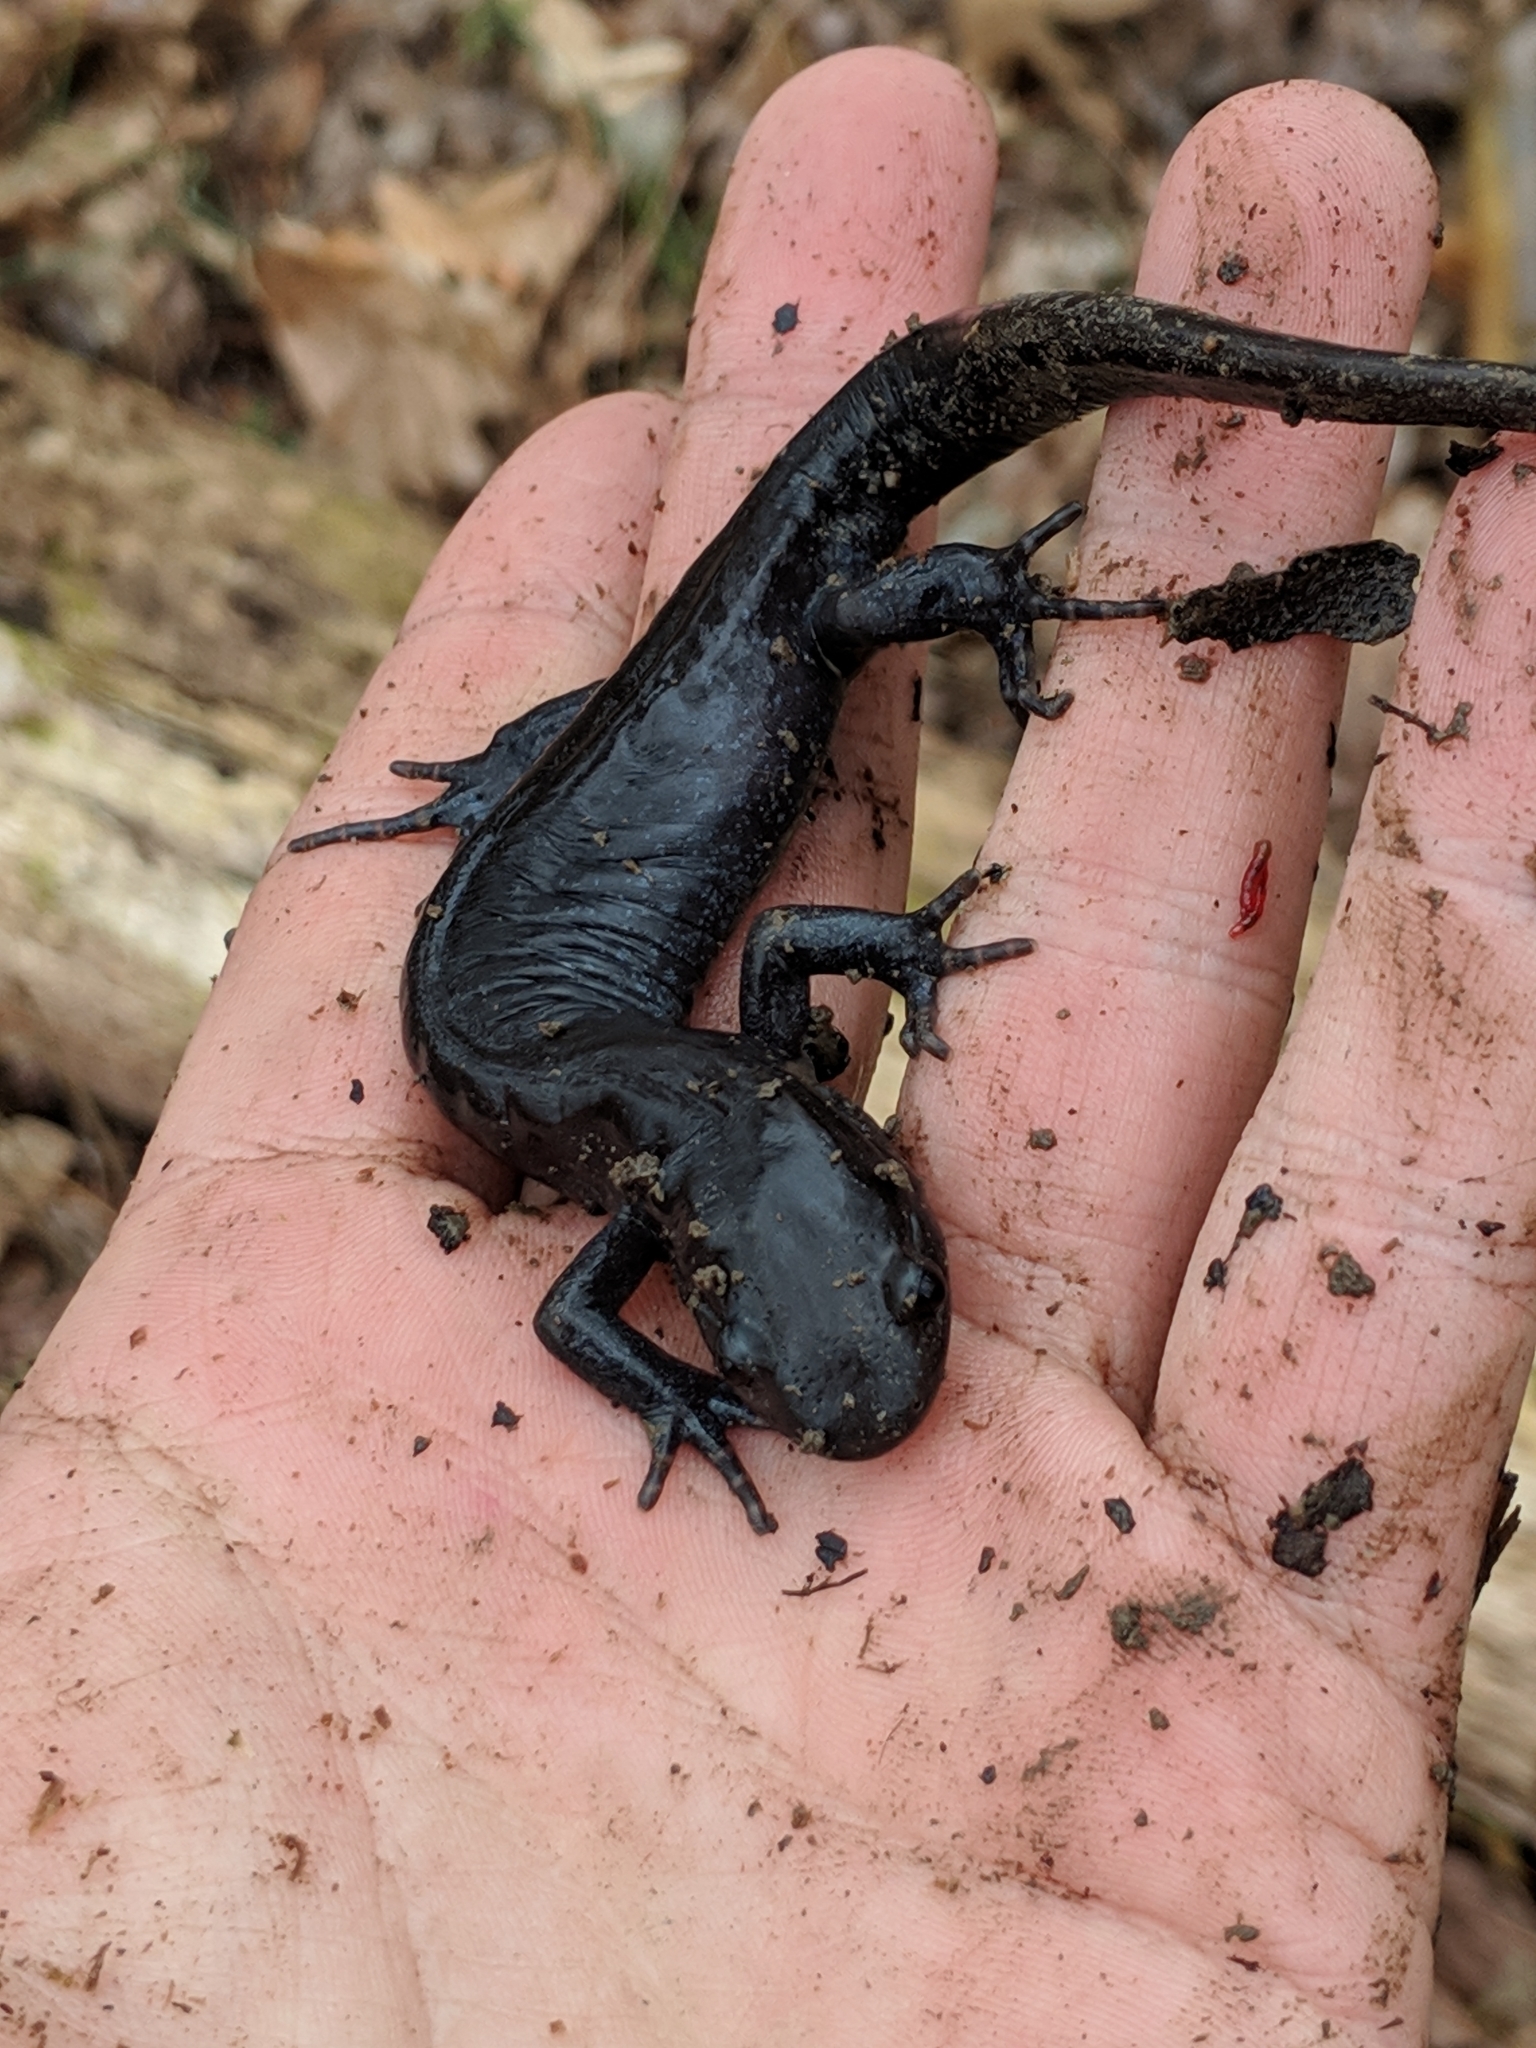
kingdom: Animalia
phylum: Chordata
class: Amphibia
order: Caudata
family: Ambystomatidae
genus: Ambystoma
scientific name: Ambystoma jeffersonianum
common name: Jefferson salamander
